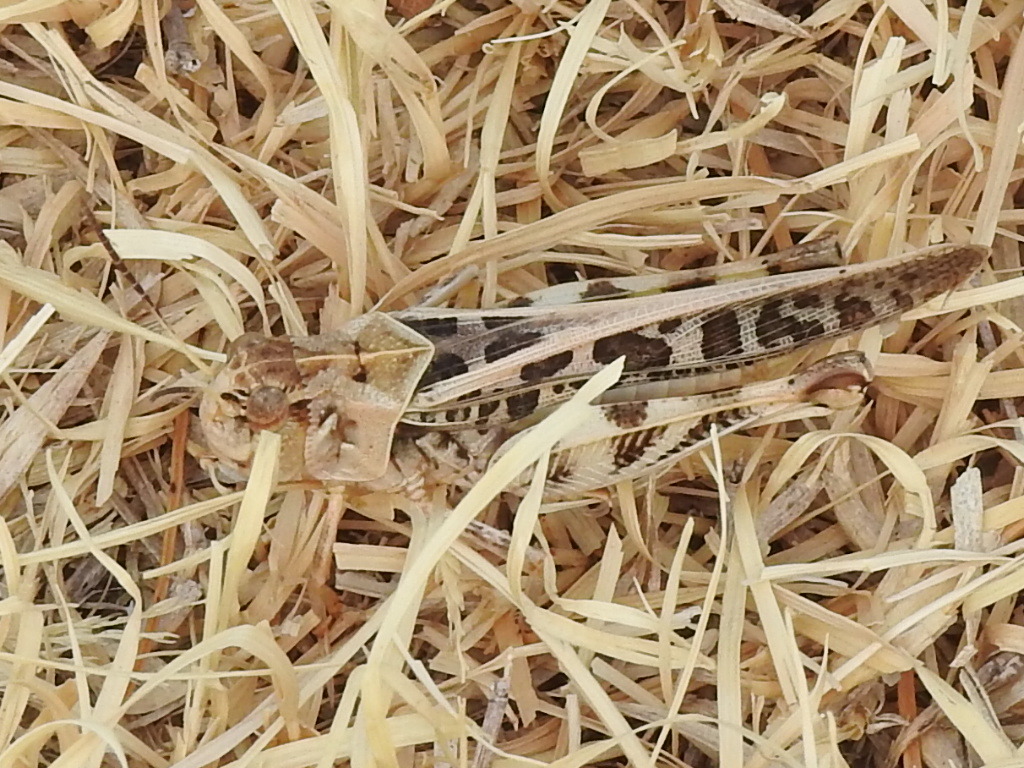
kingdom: Animalia
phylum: Arthropoda
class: Insecta
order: Orthoptera
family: Acrididae
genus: Hippiscus
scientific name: Hippiscus ocelote
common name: Wrinkled grasshopper
